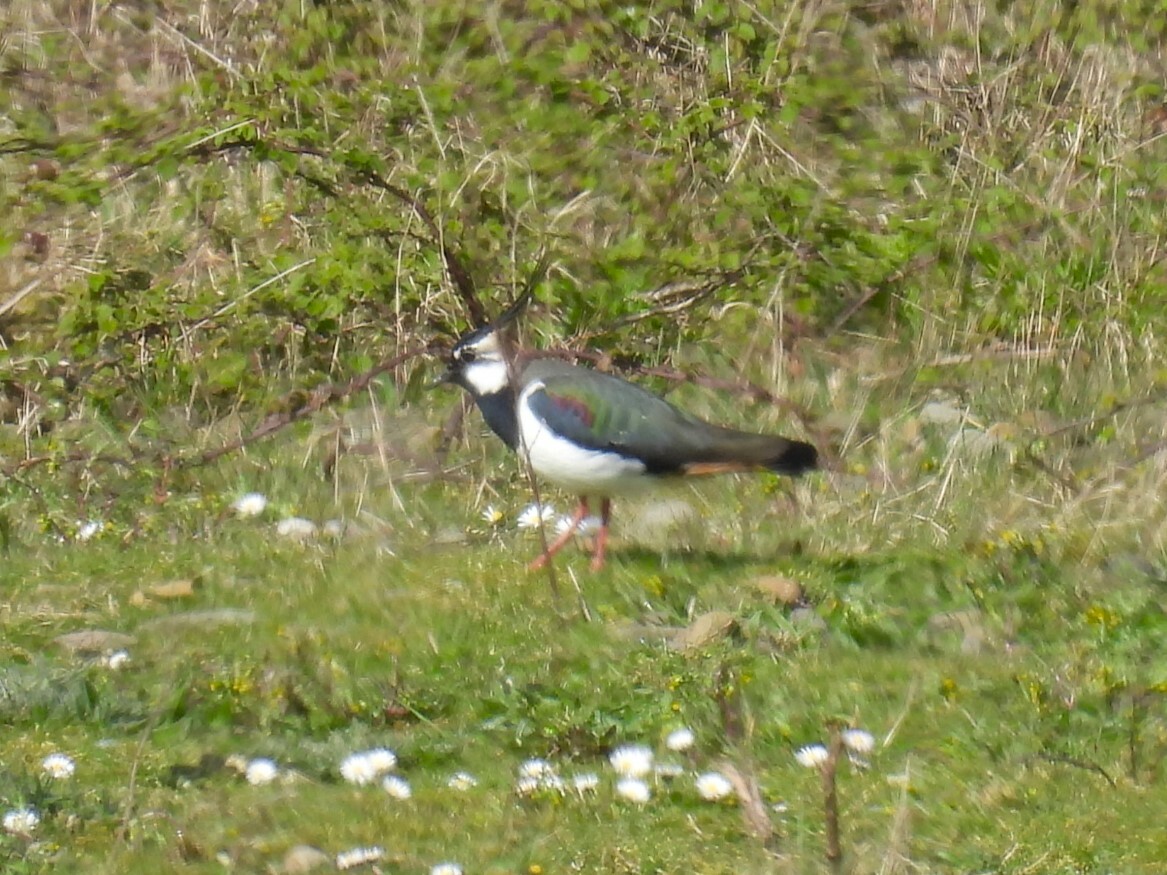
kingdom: Animalia
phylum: Chordata
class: Aves
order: Charadriiformes
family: Charadriidae
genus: Vanellus
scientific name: Vanellus vanellus
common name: Northern lapwing
